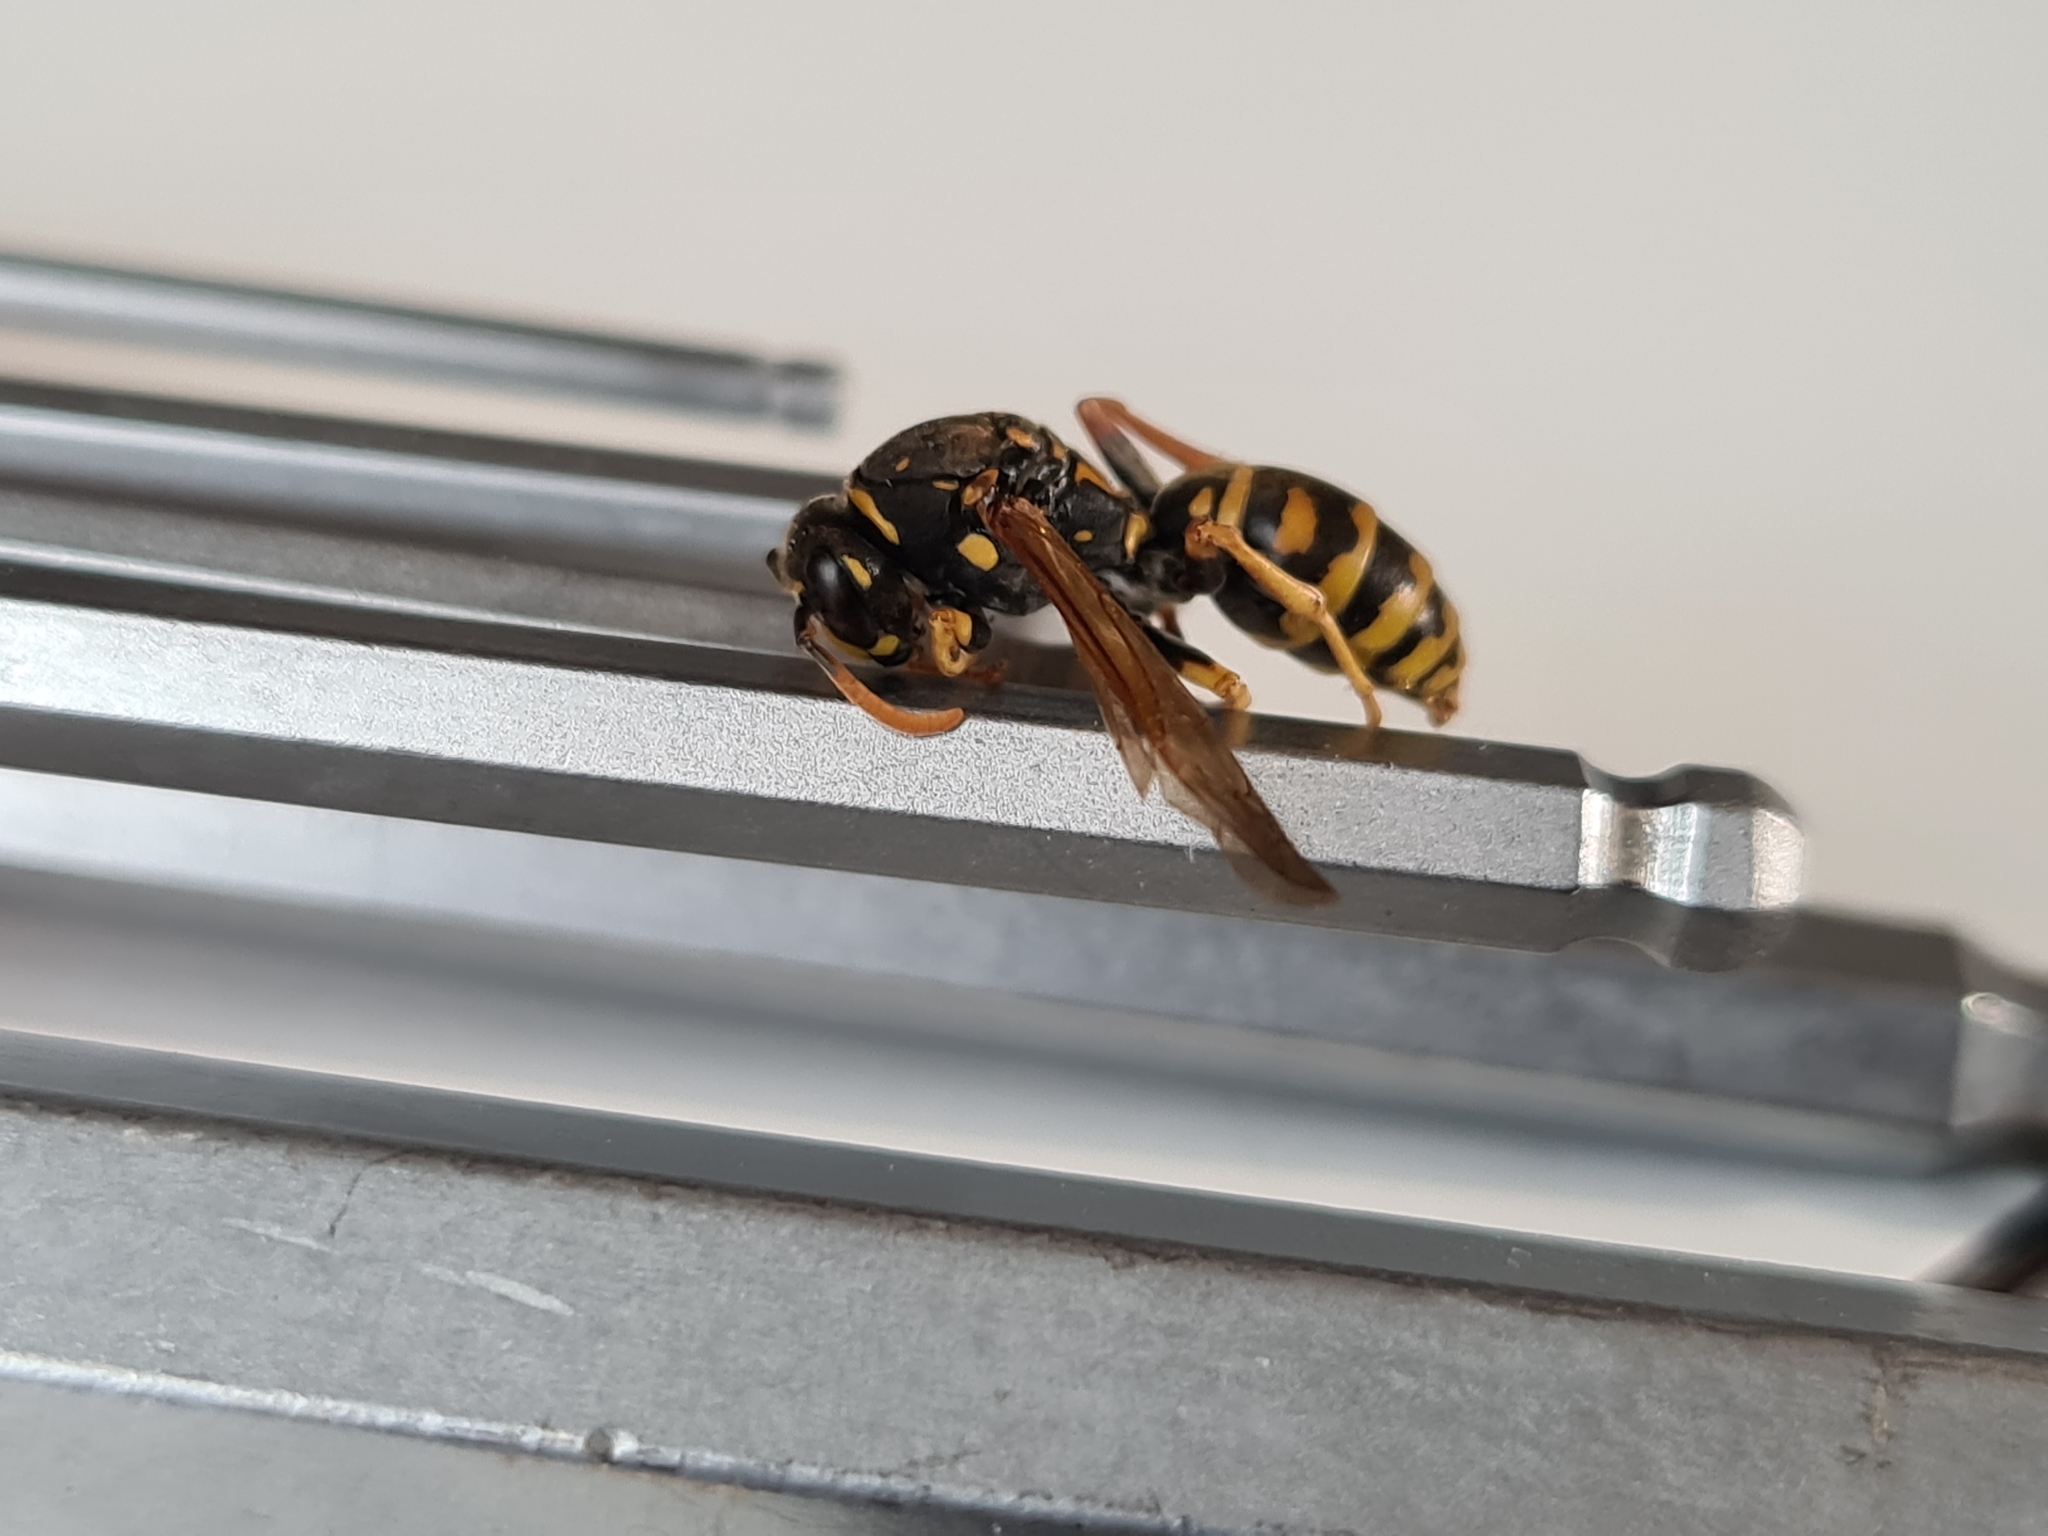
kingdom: Animalia
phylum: Arthropoda
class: Insecta
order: Hymenoptera
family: Eumenidae
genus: Polistes
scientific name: Polistes dominula
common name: Paper wasp
